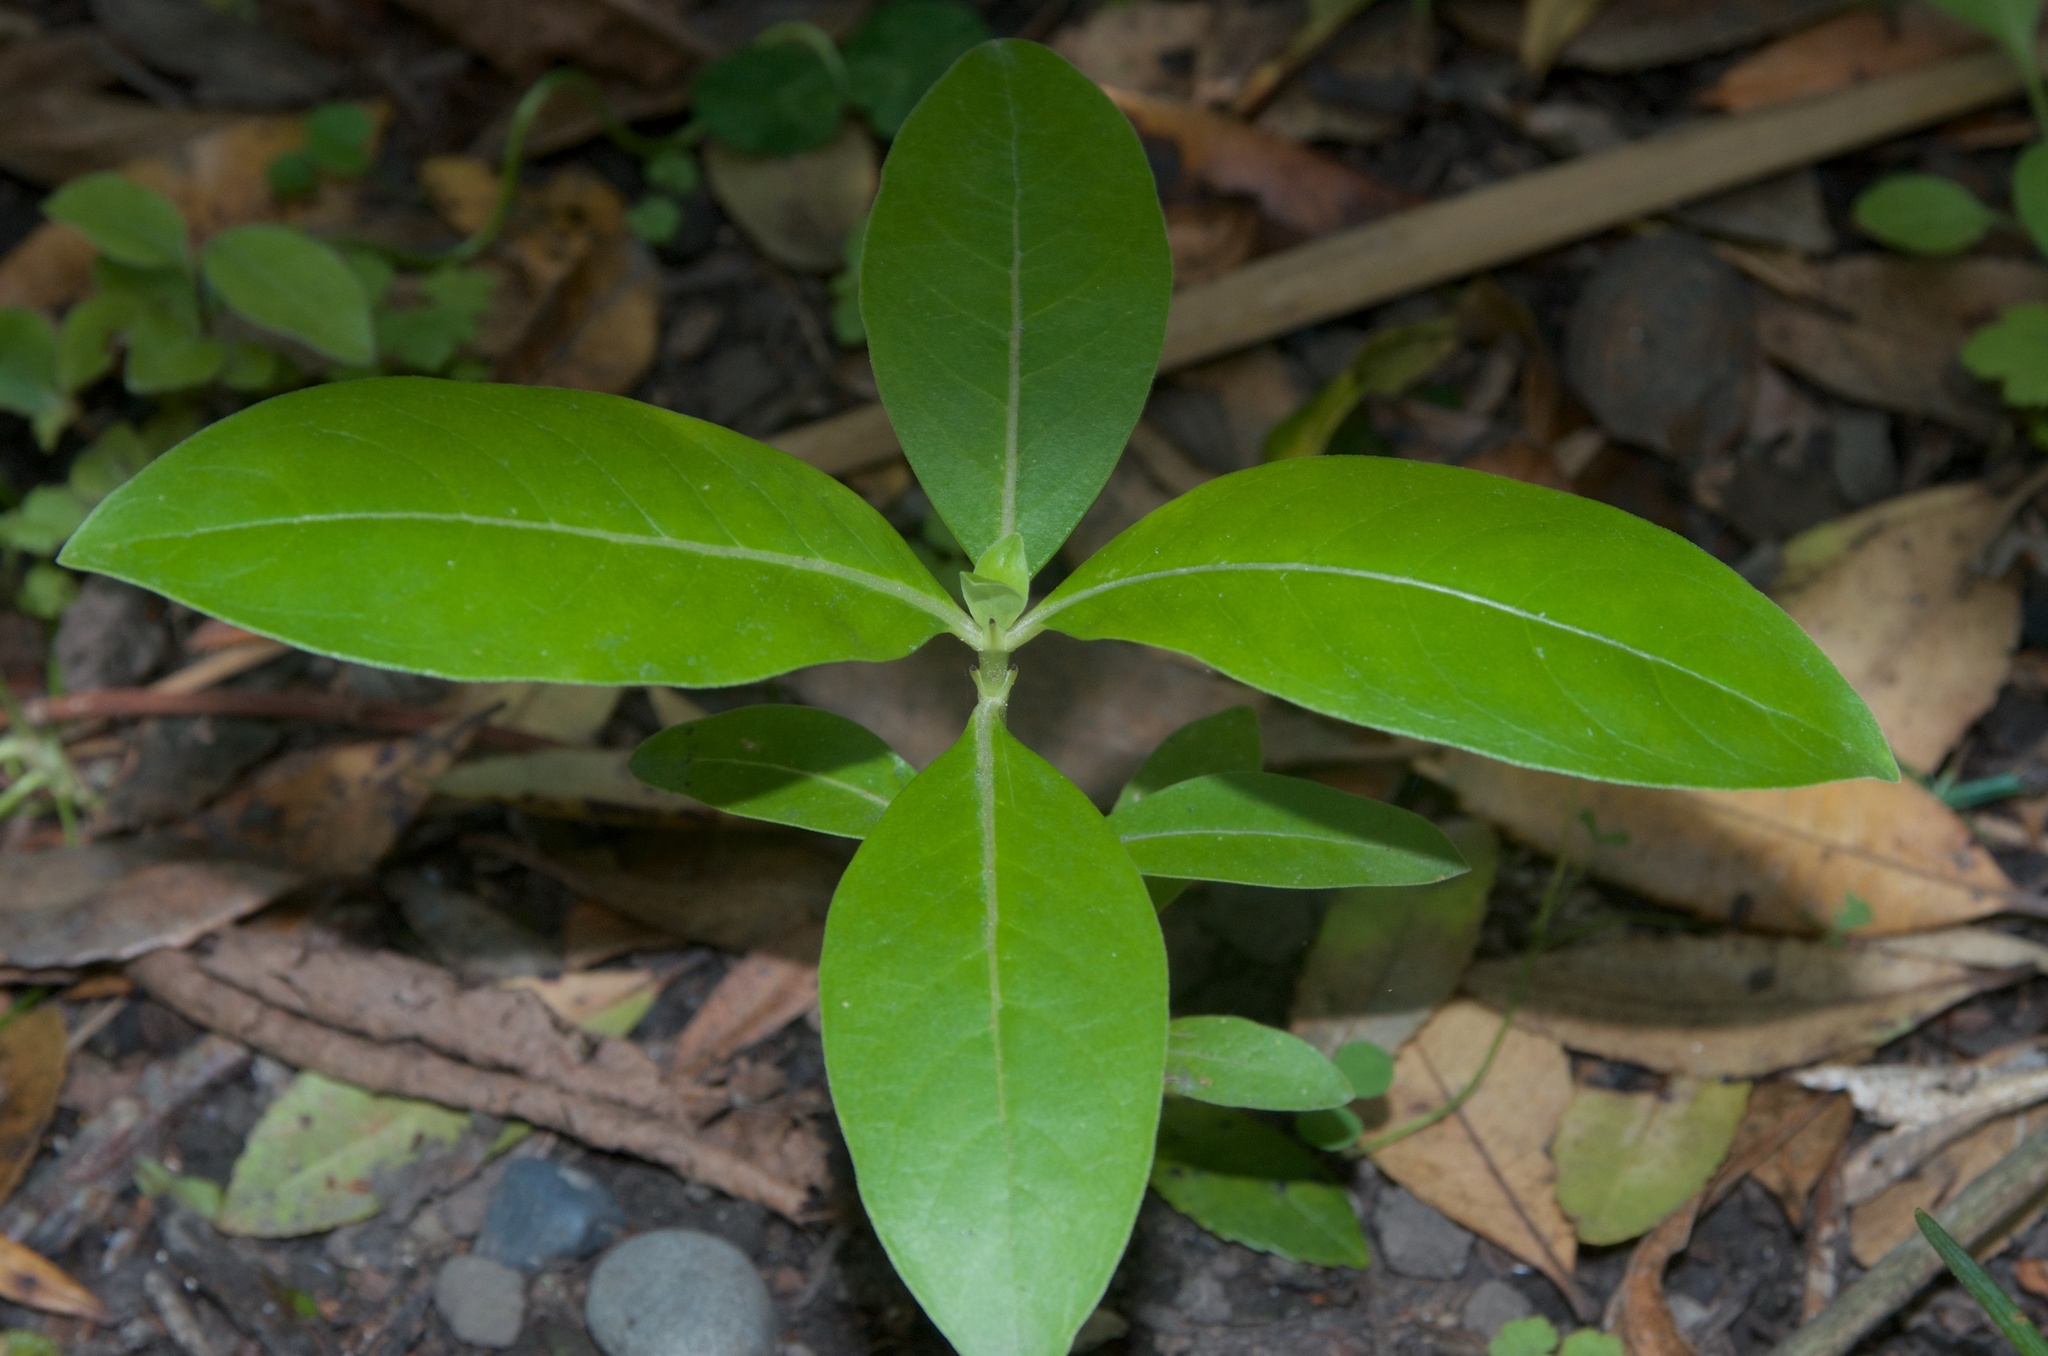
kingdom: Plantae
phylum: Tracheophyta
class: Magnoliopsida
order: Gentianales
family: Rubiaceae
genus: Coprosma
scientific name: Coprosma robusta
